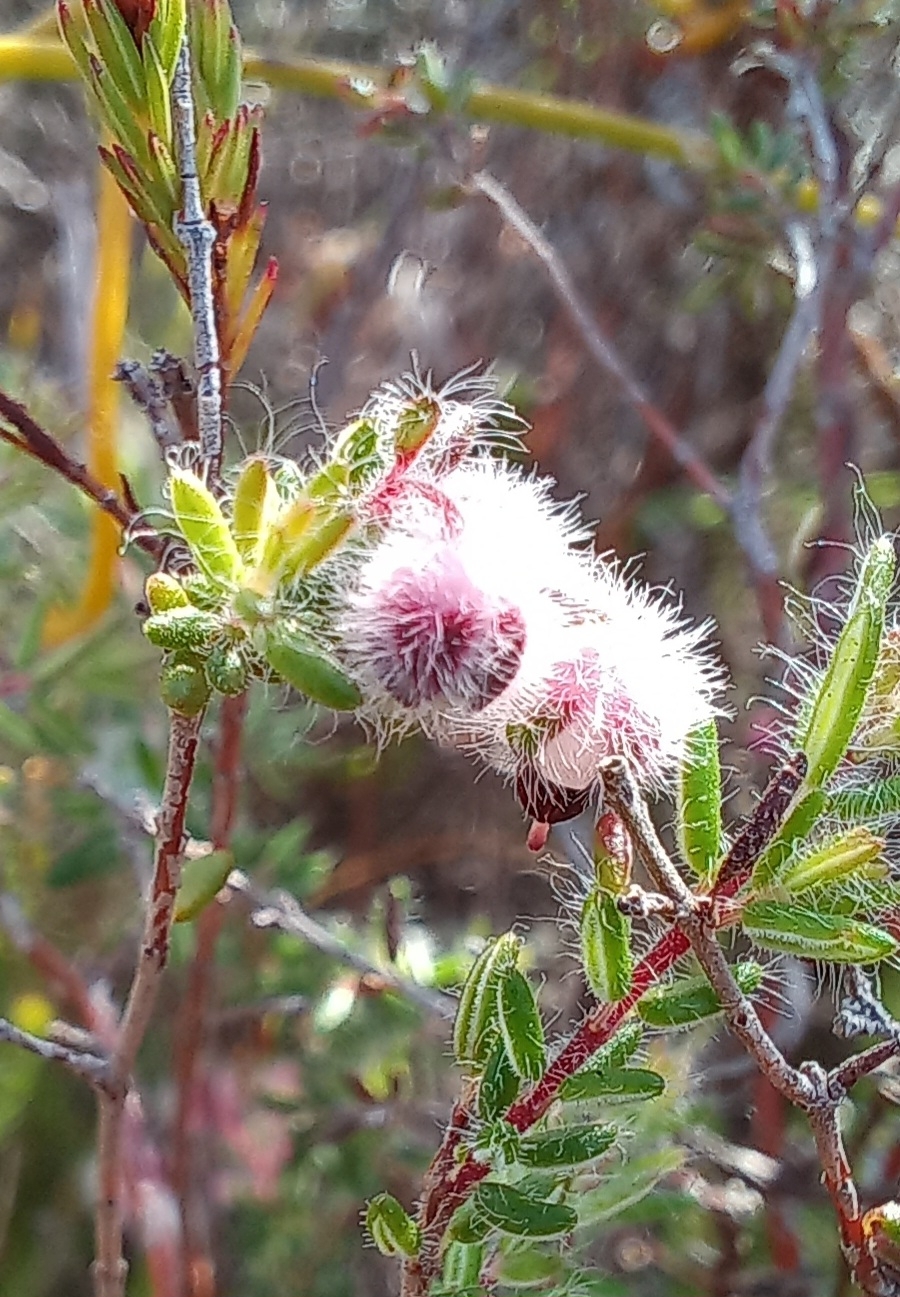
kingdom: Plantae
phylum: Tracheophyta
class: Magnoliopsida
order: Ericales
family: Ericaceae
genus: Erica
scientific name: Erica bruniades
